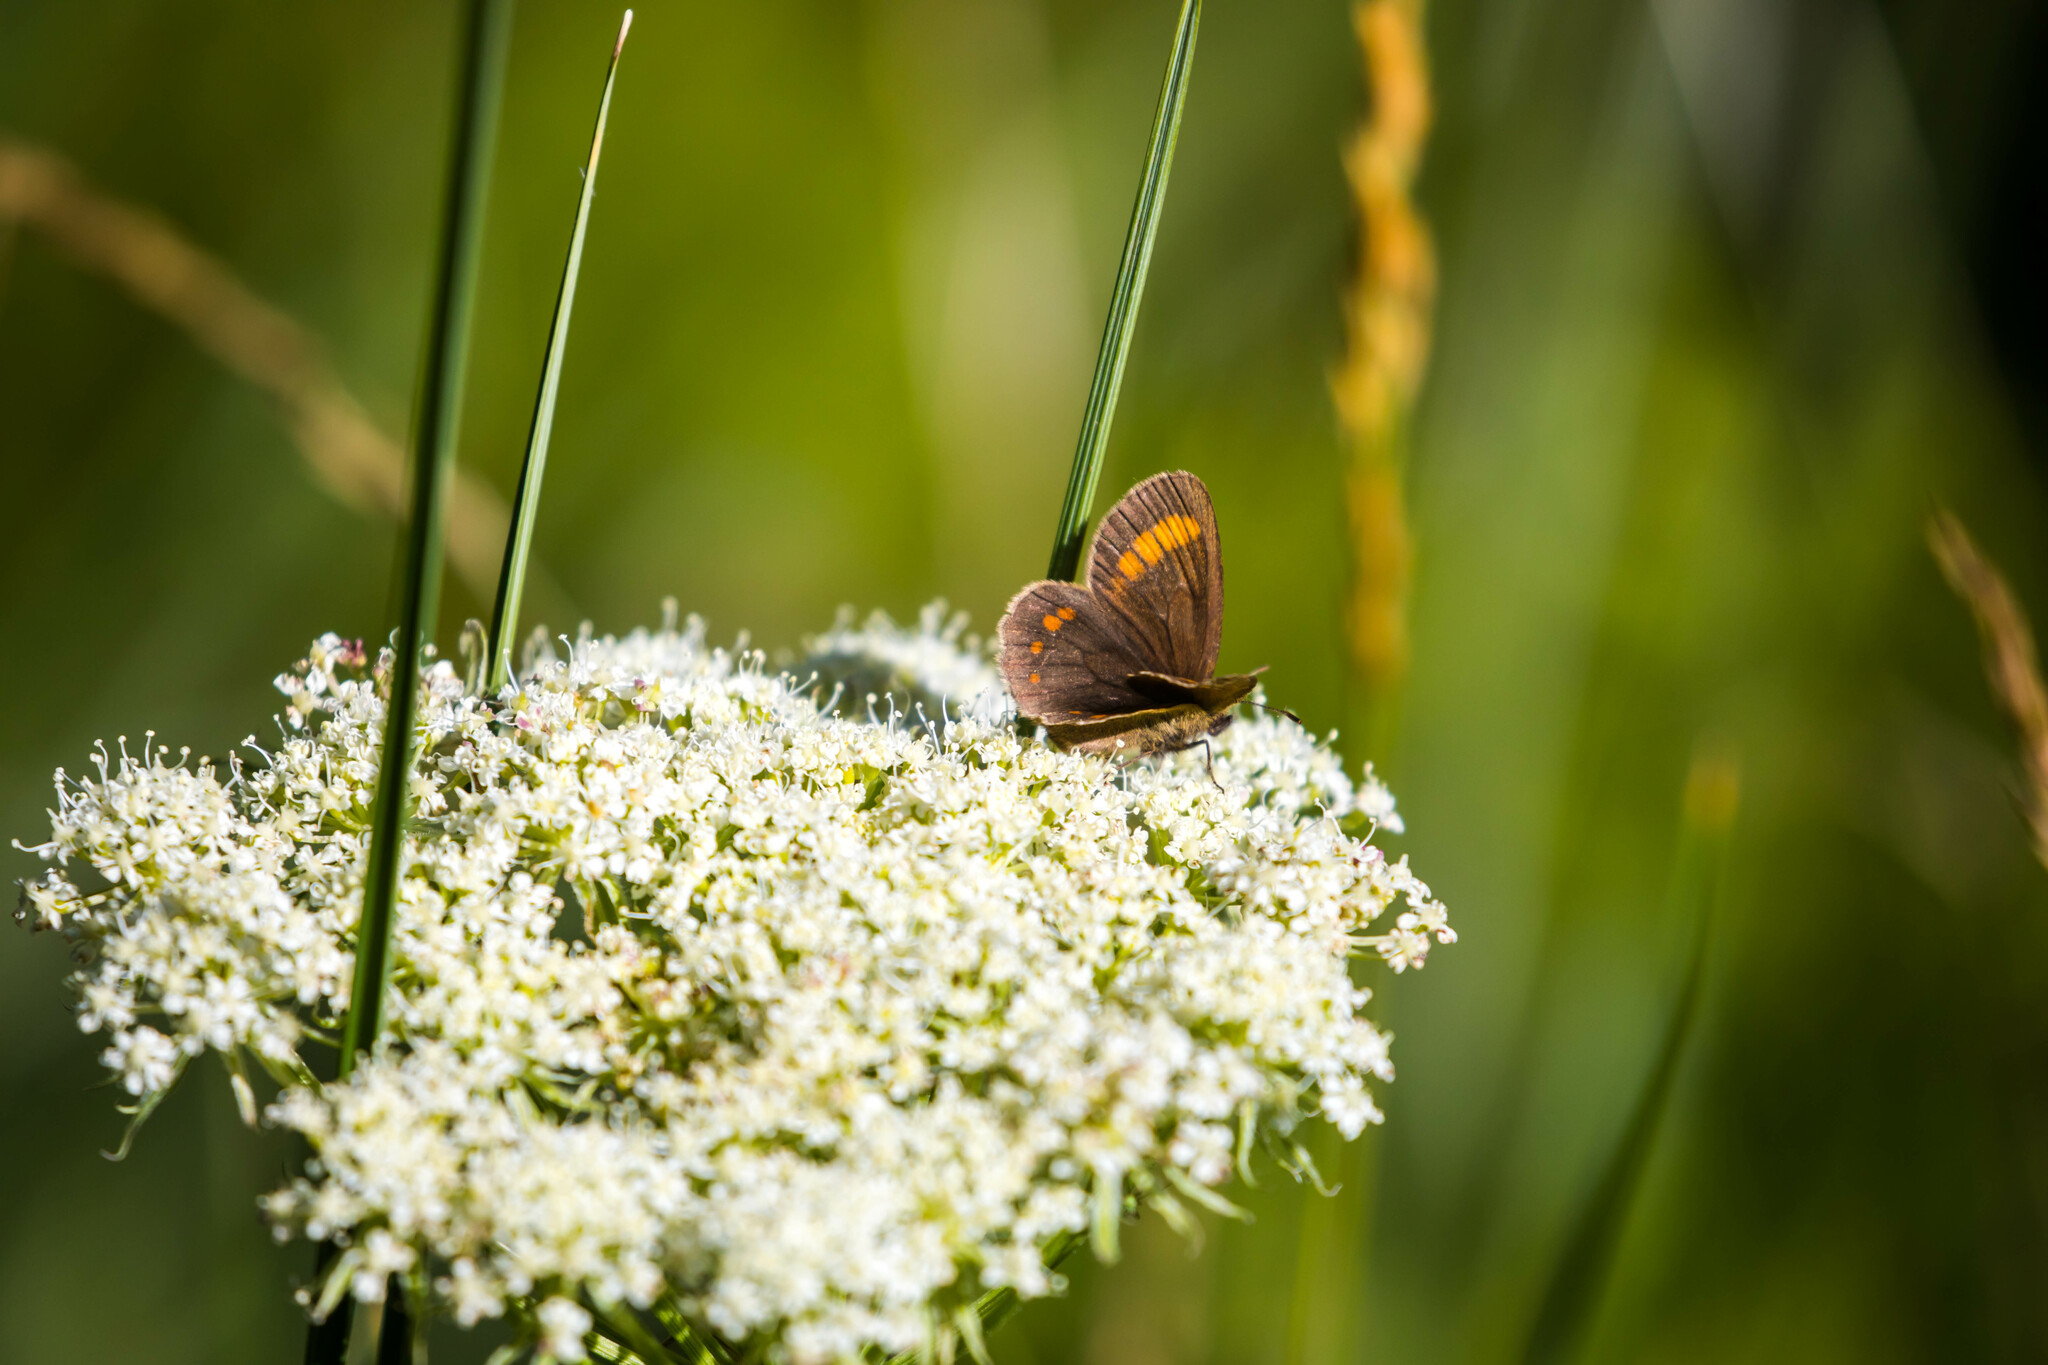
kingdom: Animalia
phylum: Arthropoda
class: Insecta
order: Lepidoptera
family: Nymphalidae
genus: Erebia
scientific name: Erebia pharte
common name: Blind ringlet
